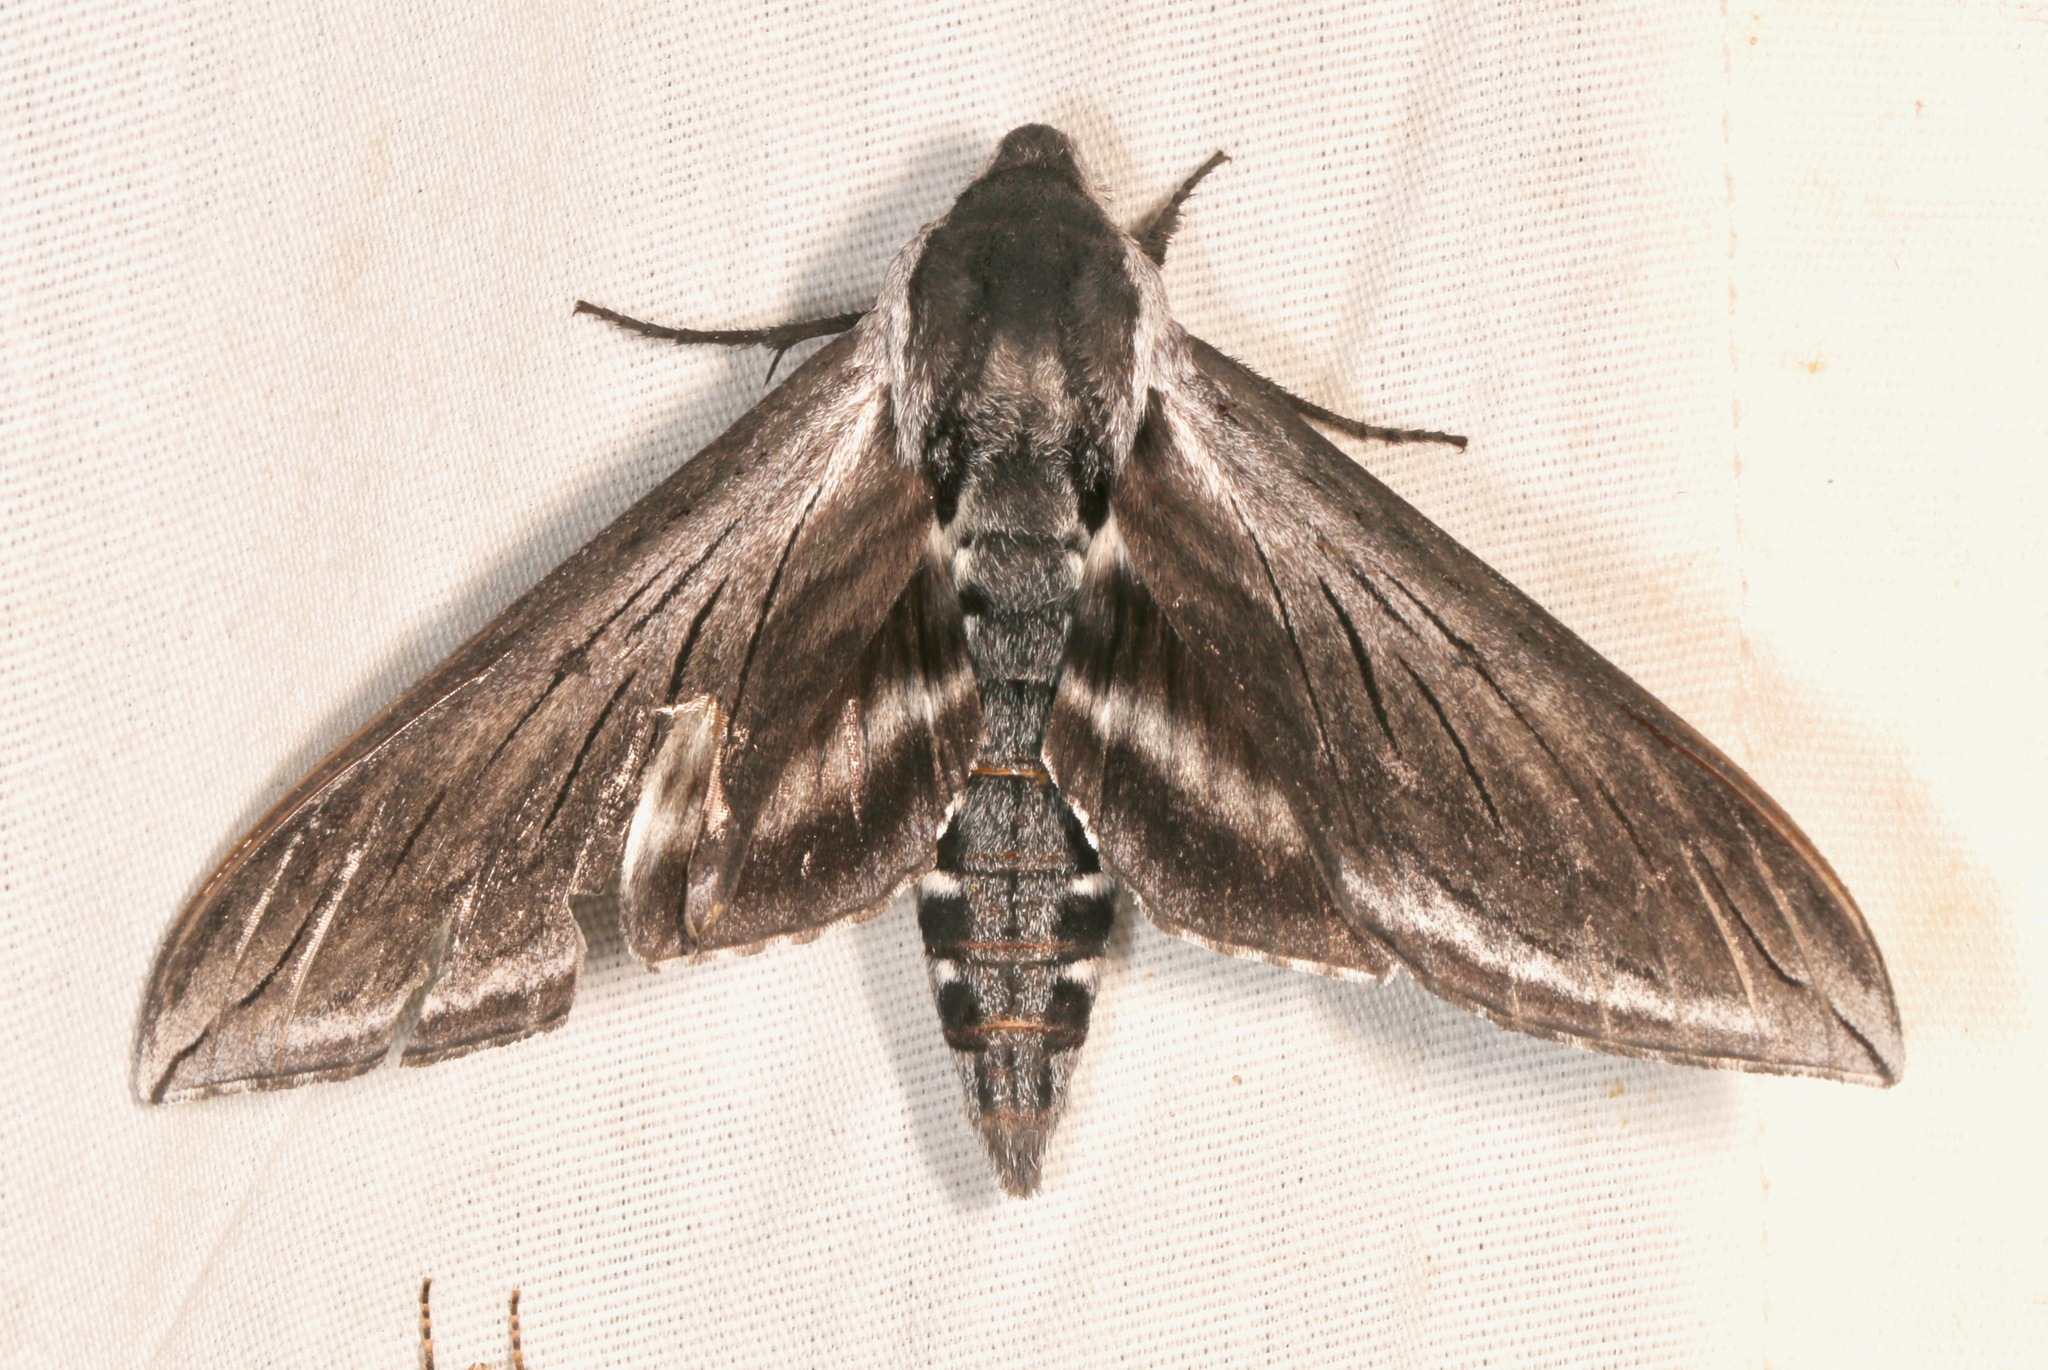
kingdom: Animalia
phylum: Arthropoda
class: Insecta
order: Lepidoptera
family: Sphingidae
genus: Sphinx
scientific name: Sphinx perelegans
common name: Elegant sphinx
